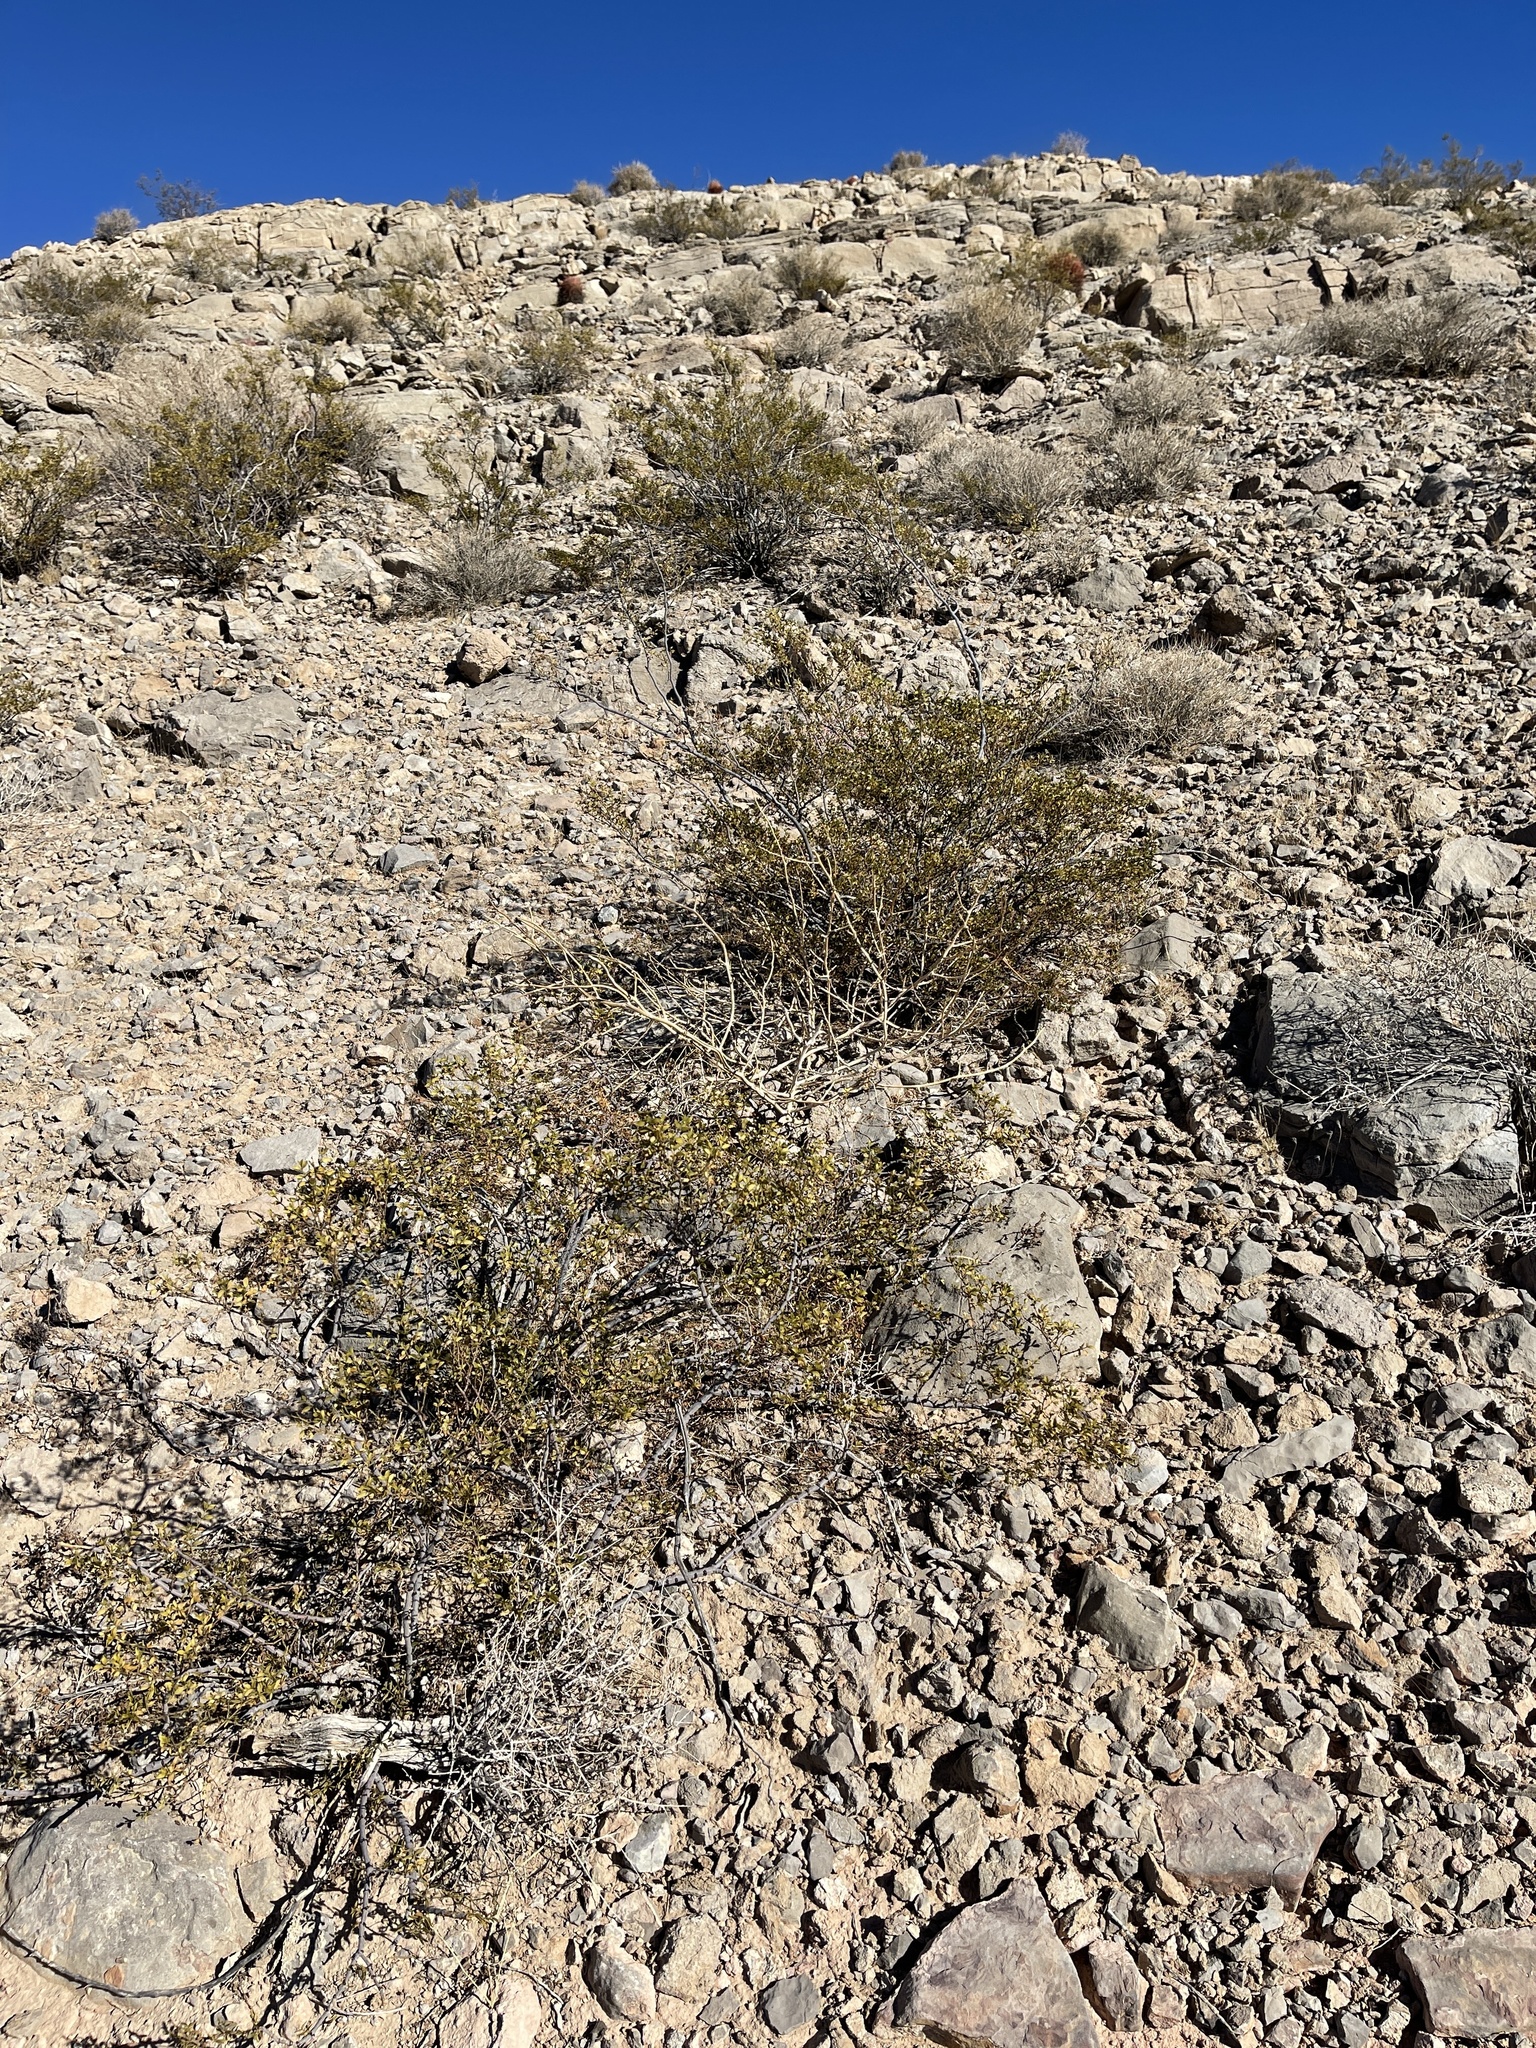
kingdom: Plantae
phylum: Tracheophyta
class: Magnoliopsida
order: Zygophyllales
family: Zygophyllaceae
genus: Larrea
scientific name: Larrea tridentata
